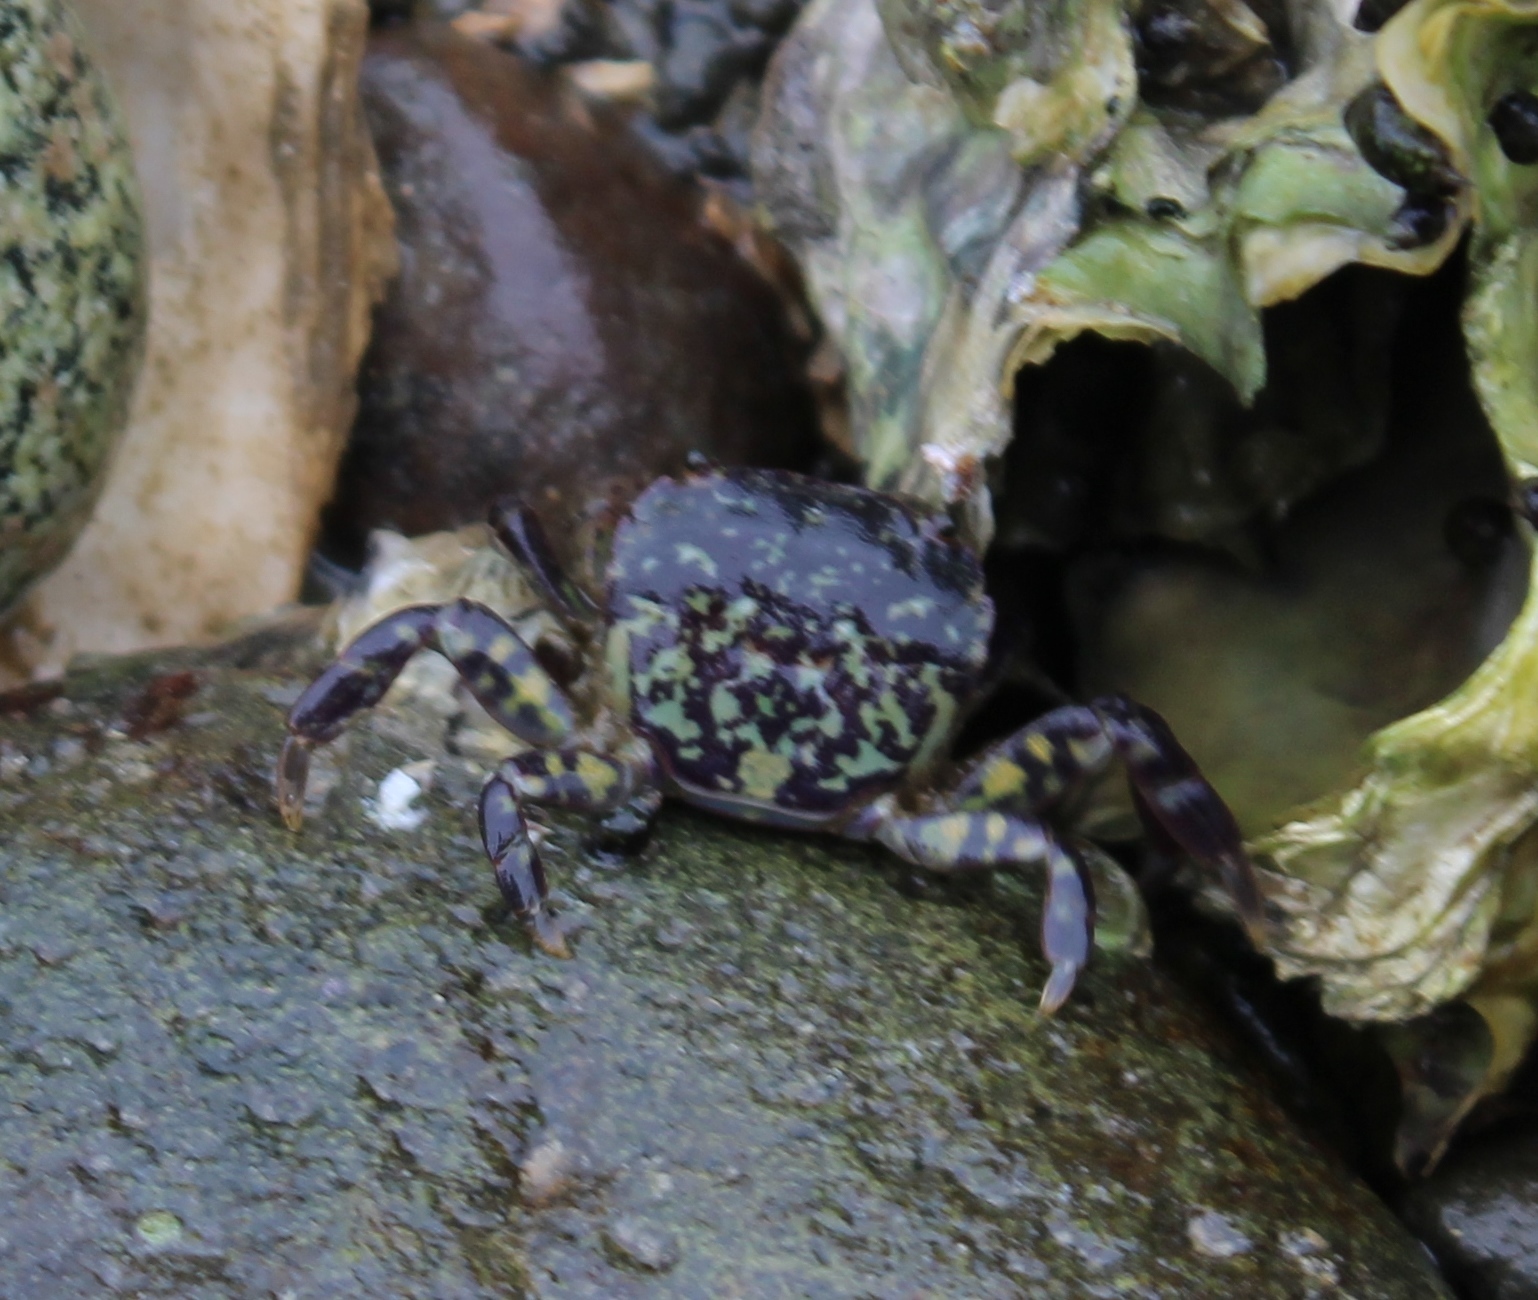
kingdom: Animalia
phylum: Arthropoda
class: Malacostraca
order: Decapoda
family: Varunidae
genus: Hemigrapsus
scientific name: Hemigrapsus nudus
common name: Purple shore crab
